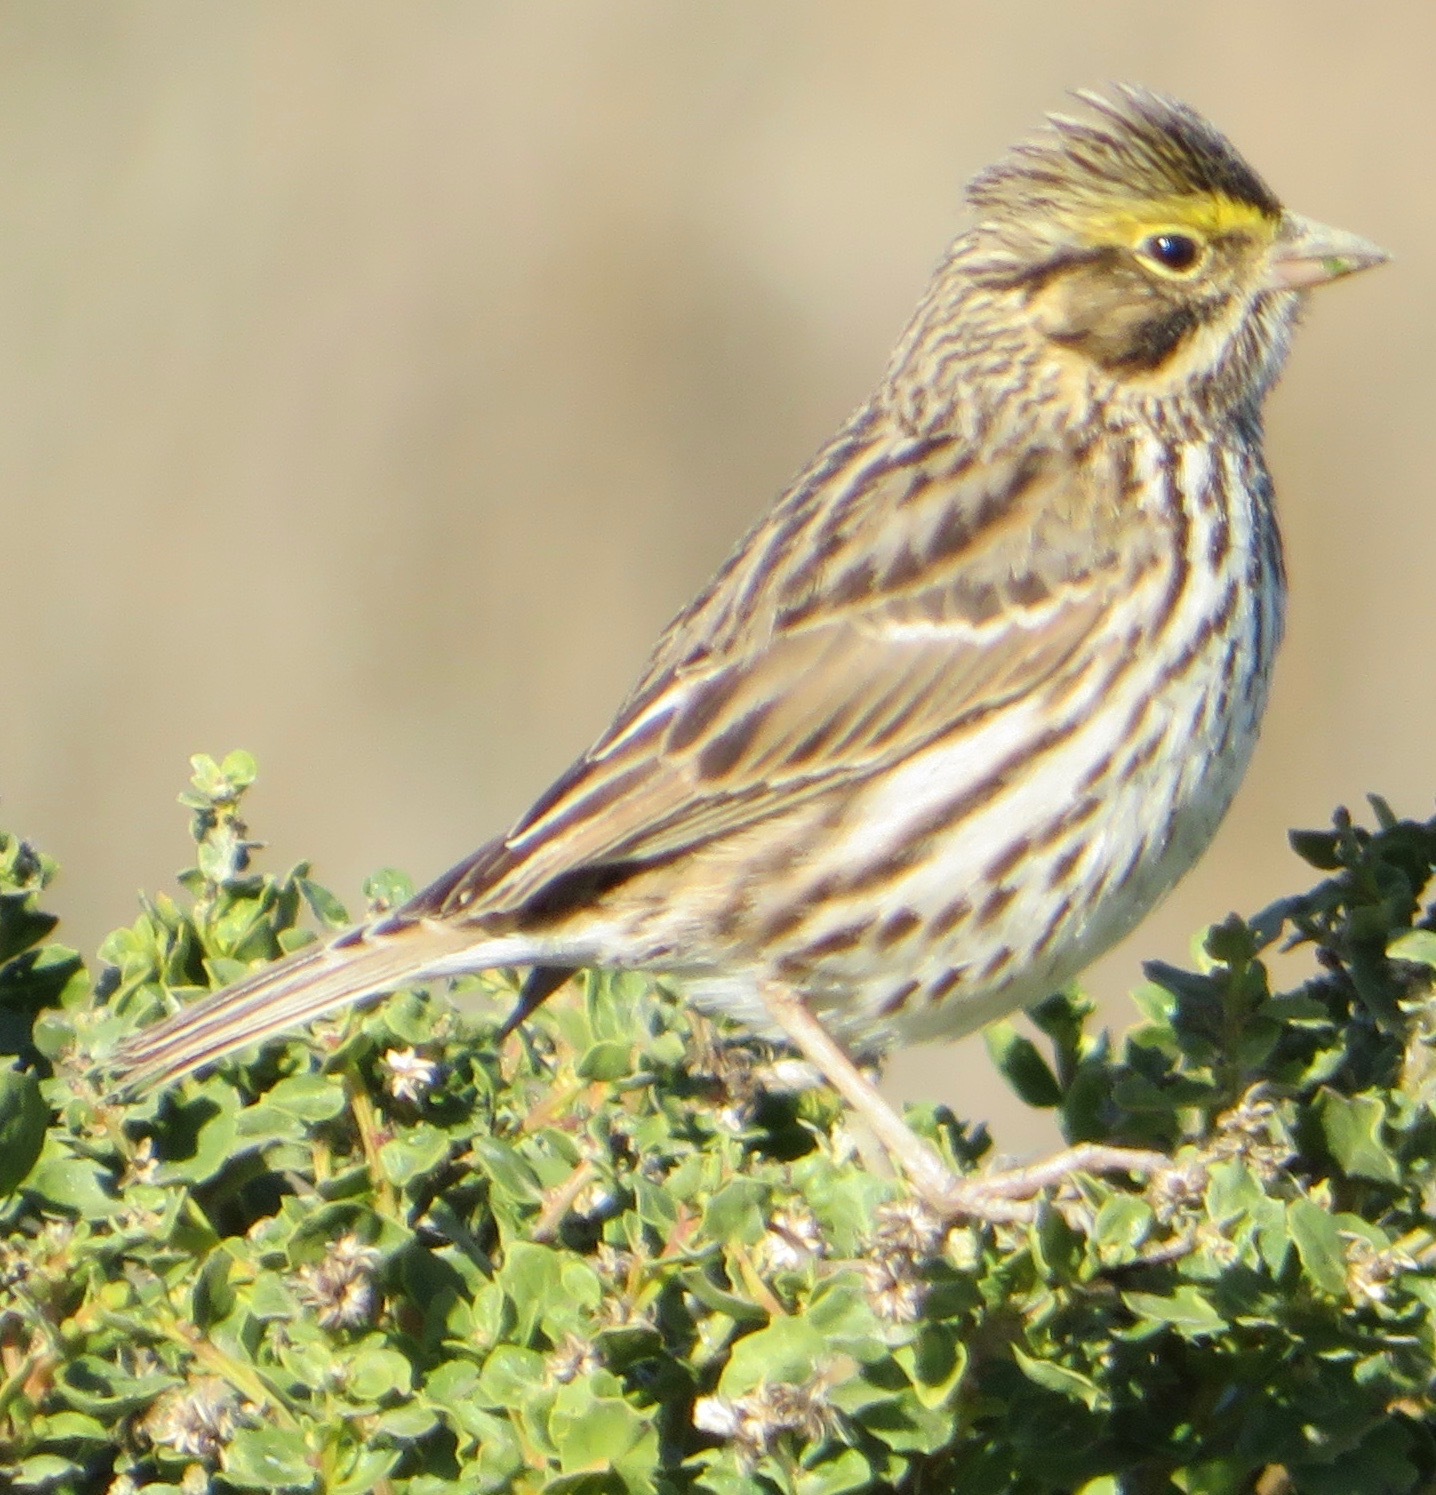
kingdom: Animalia
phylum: Chordata
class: Aves
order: Passeriformes
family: Passerellidae
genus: Passerculus
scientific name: Passerculus sandwichensis
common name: Savannah sparrow
